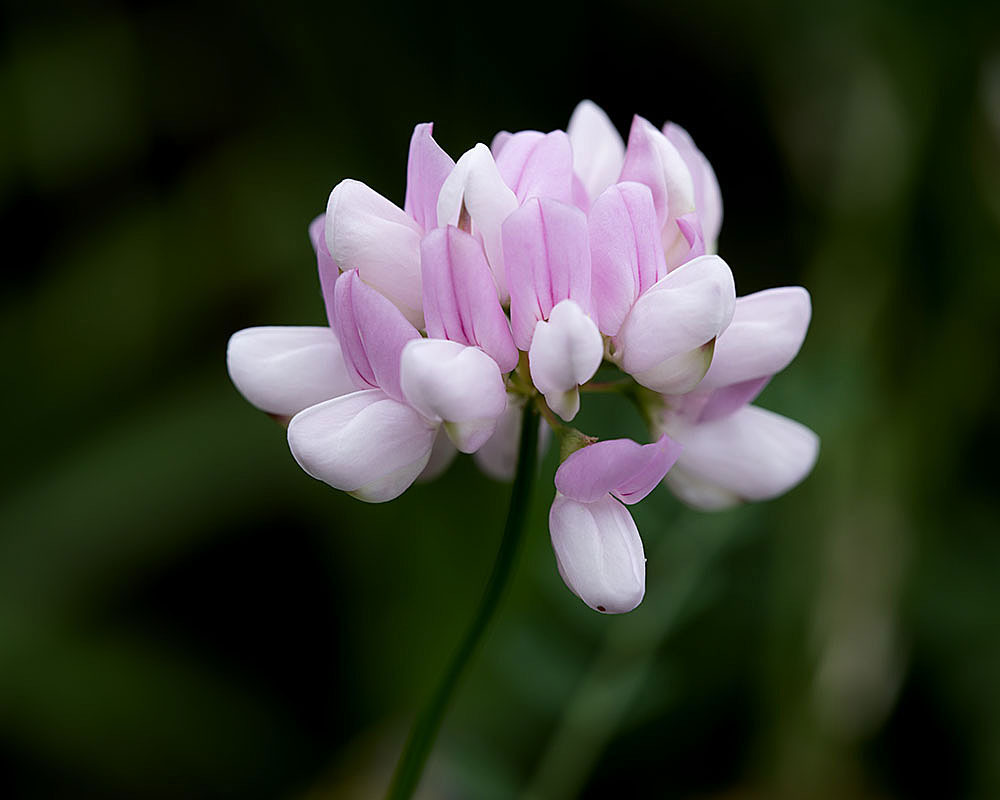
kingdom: Plantae
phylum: Tracheophyta
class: Magnoliopsida
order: Fabales
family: Fabaceae
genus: Coronilla
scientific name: Coronilla varia
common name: Crownvetch
